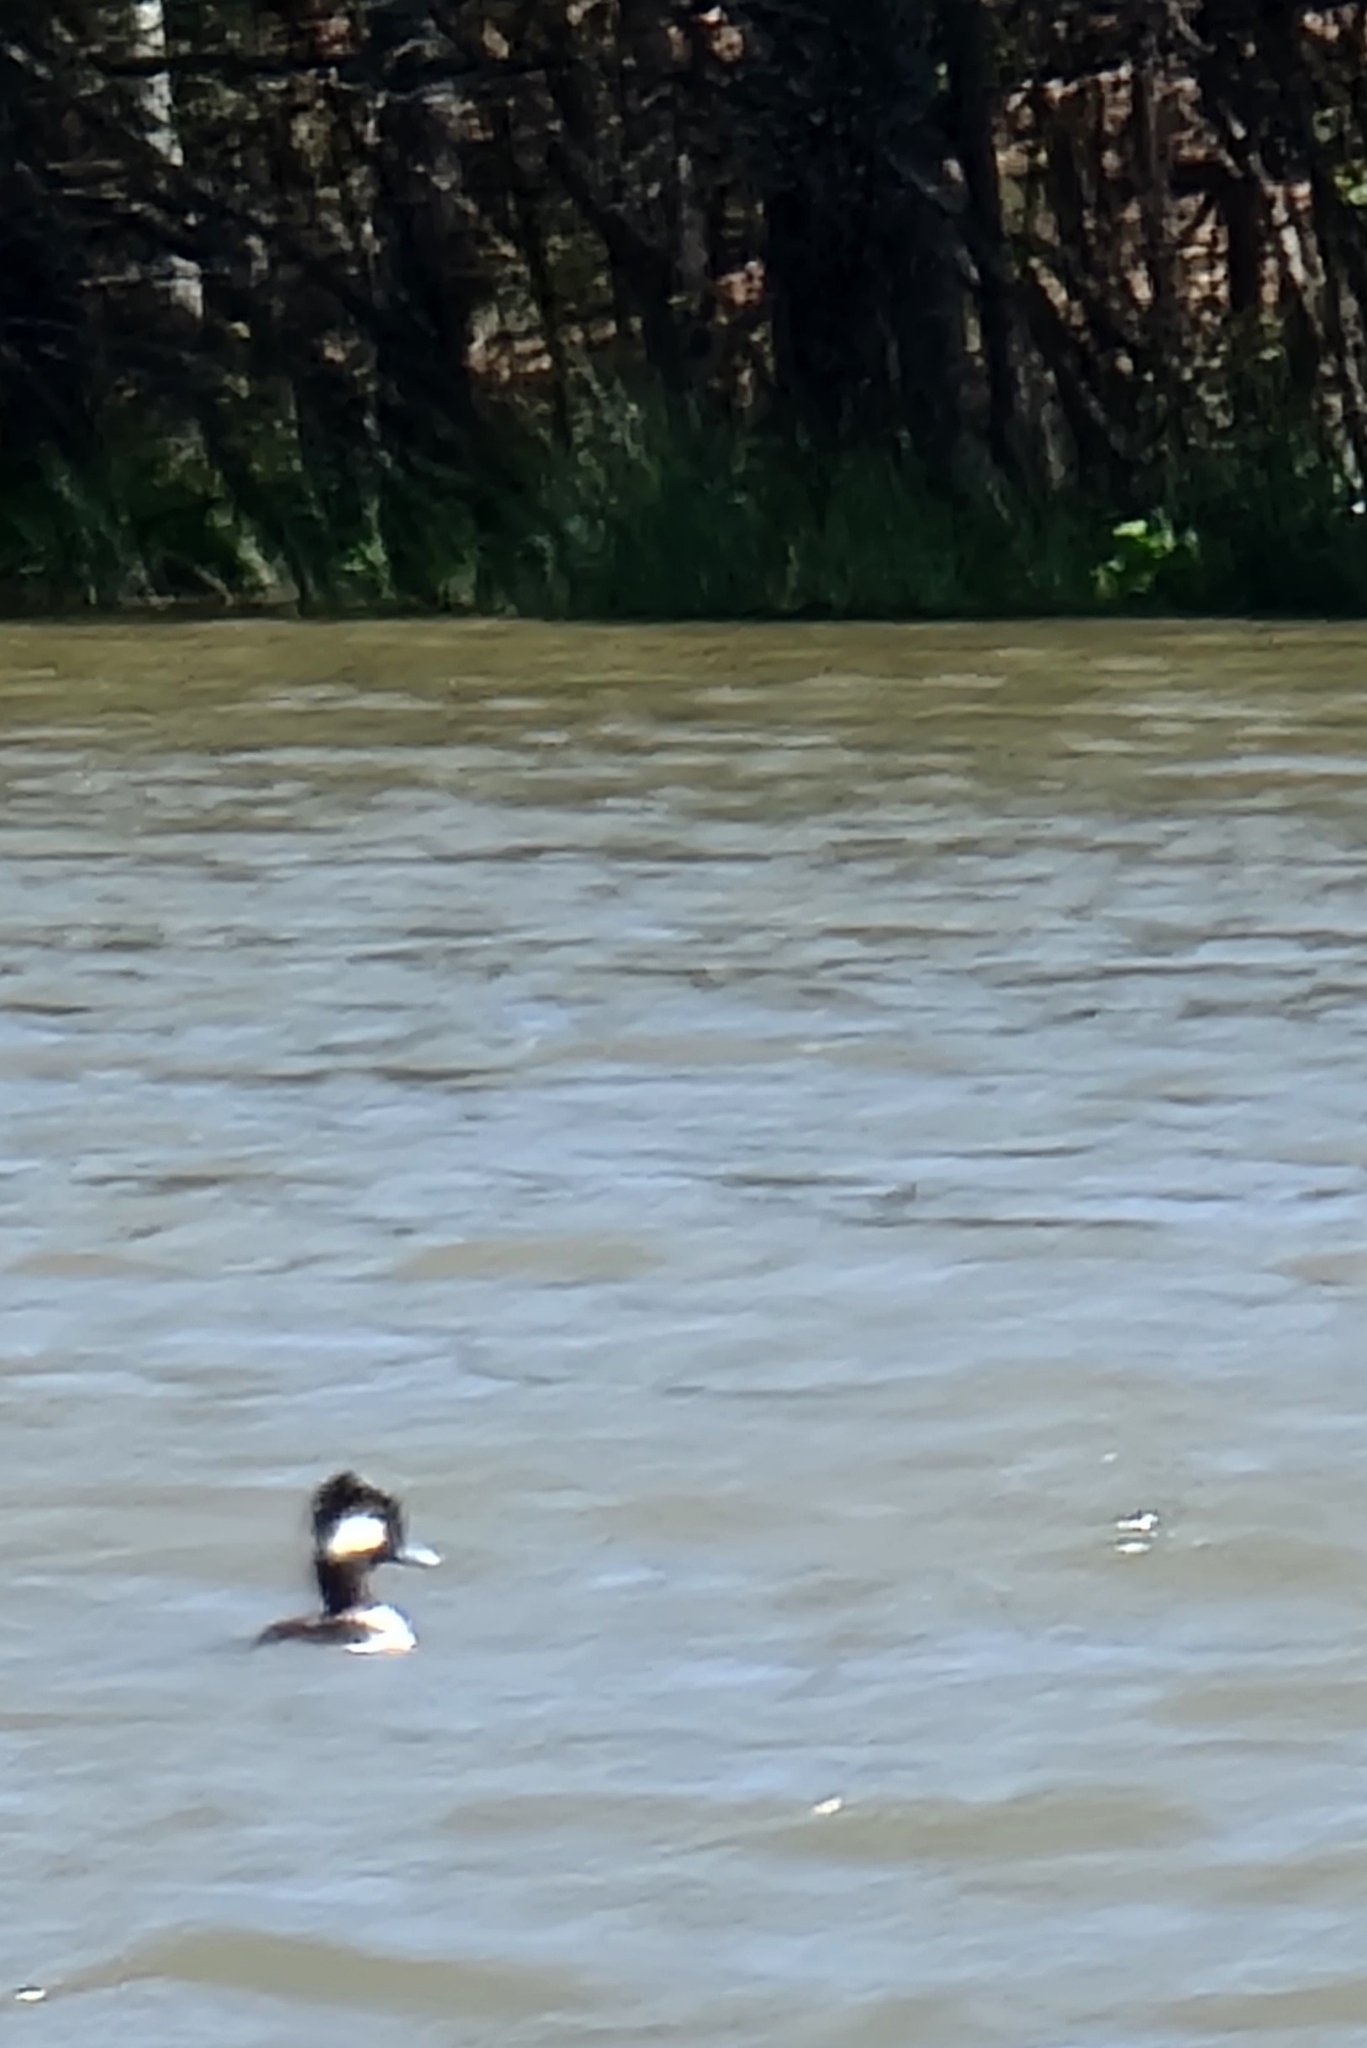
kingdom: Animalia
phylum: Chordata
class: Aves
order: Anseriformes
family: Anatidae
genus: Bucephala
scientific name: Bucephala albeola
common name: Bufflehead
